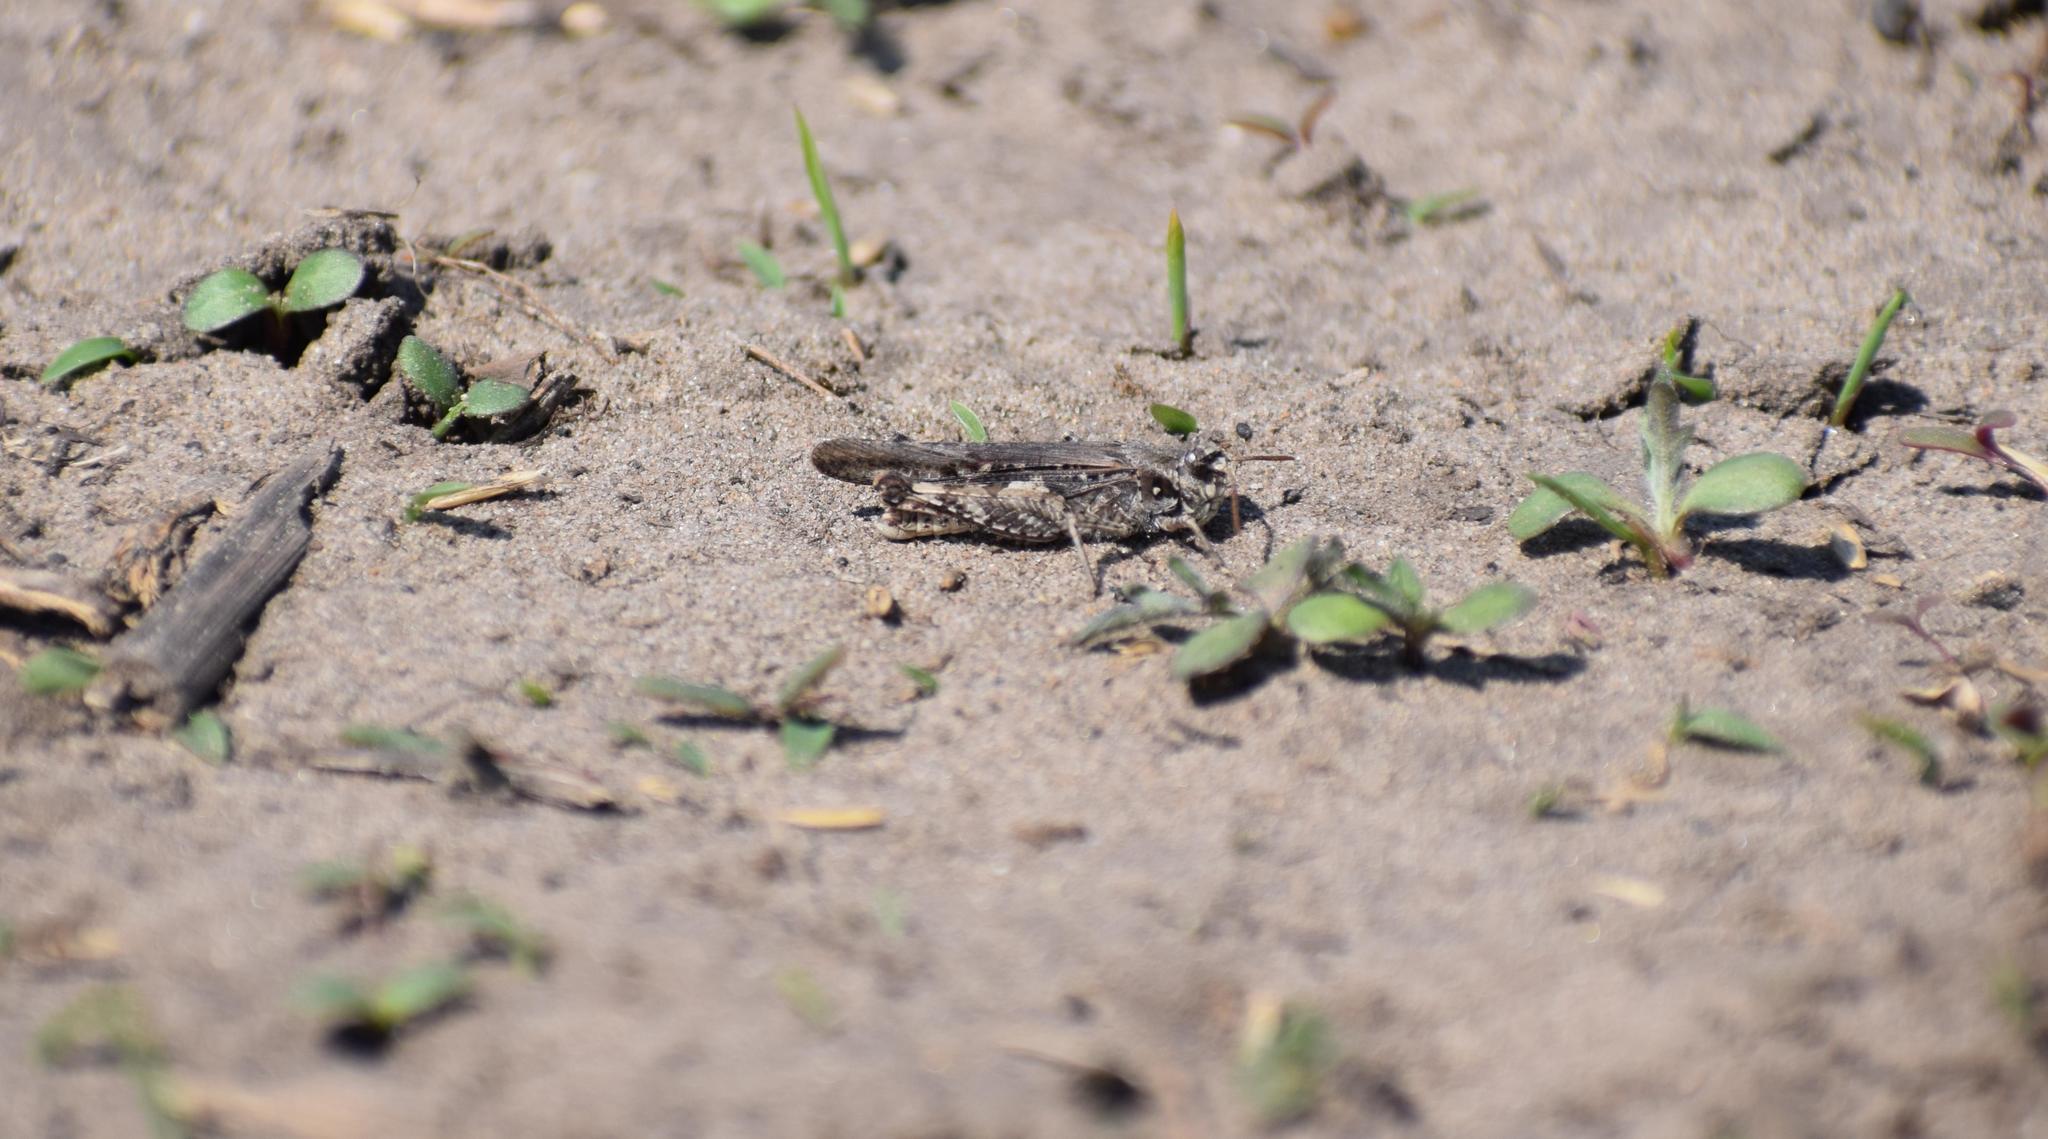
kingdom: Animalia
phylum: Arthropoda
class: Insecta
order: Orthoptera
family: Acrididae
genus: Acrotylus
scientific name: Acrotylus
